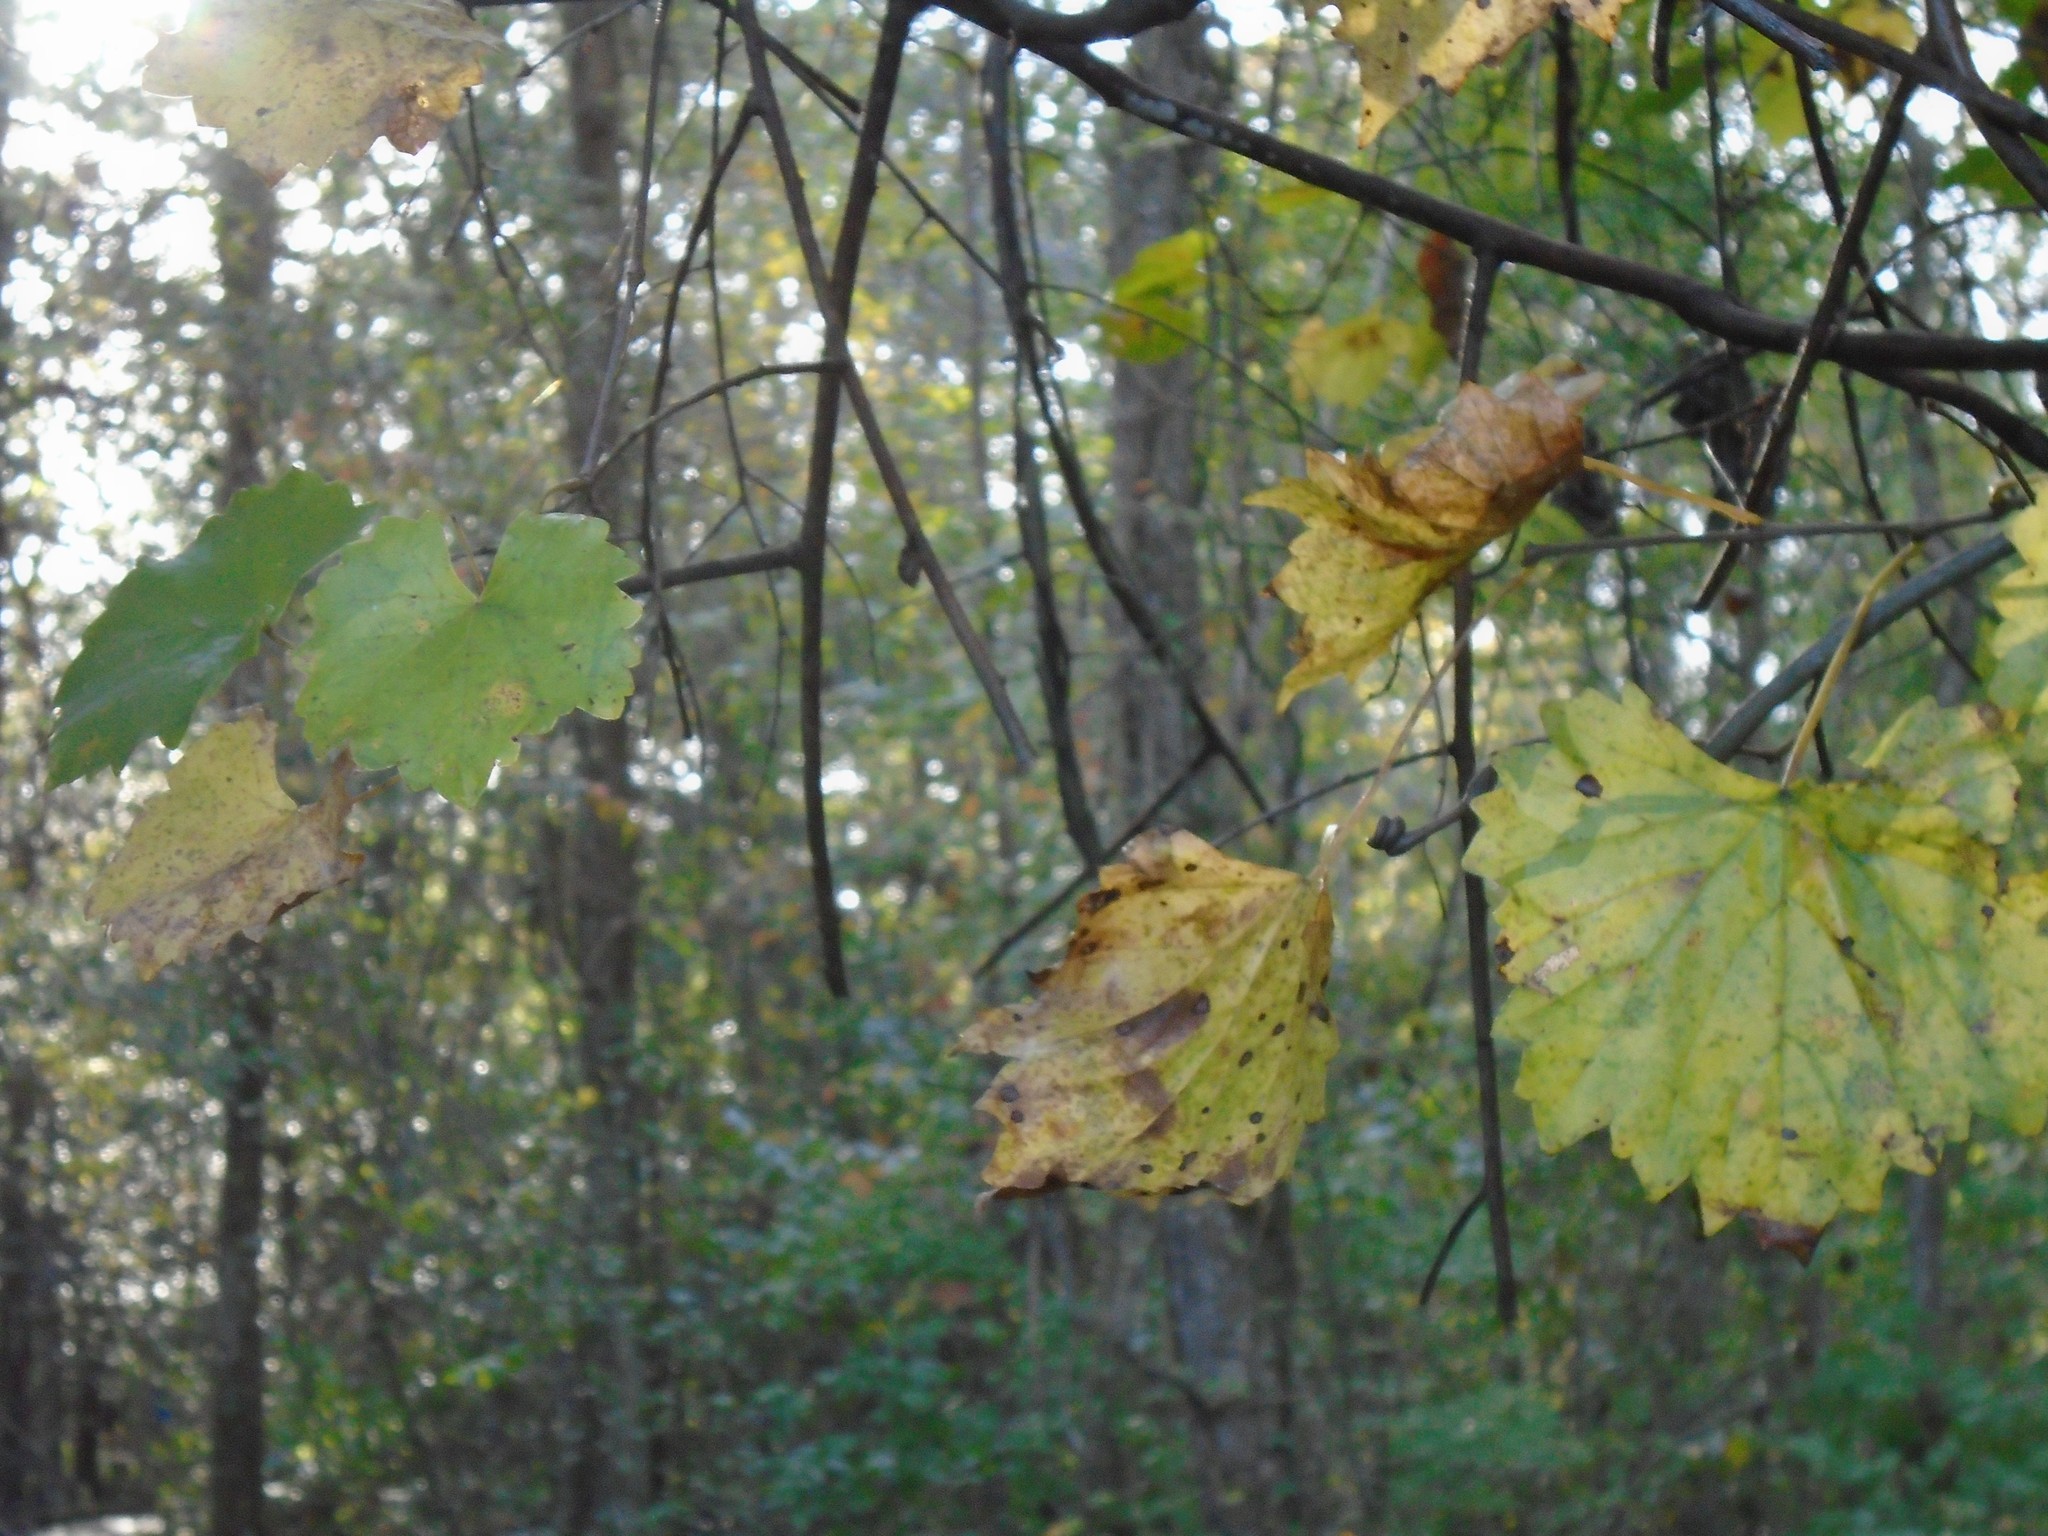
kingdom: Plantae
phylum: Tracheophyta
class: Magnoliopsida
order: Vitales
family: Vitaceae
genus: Vitis
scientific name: Vitis rotundifolia
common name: Muscadine grape
